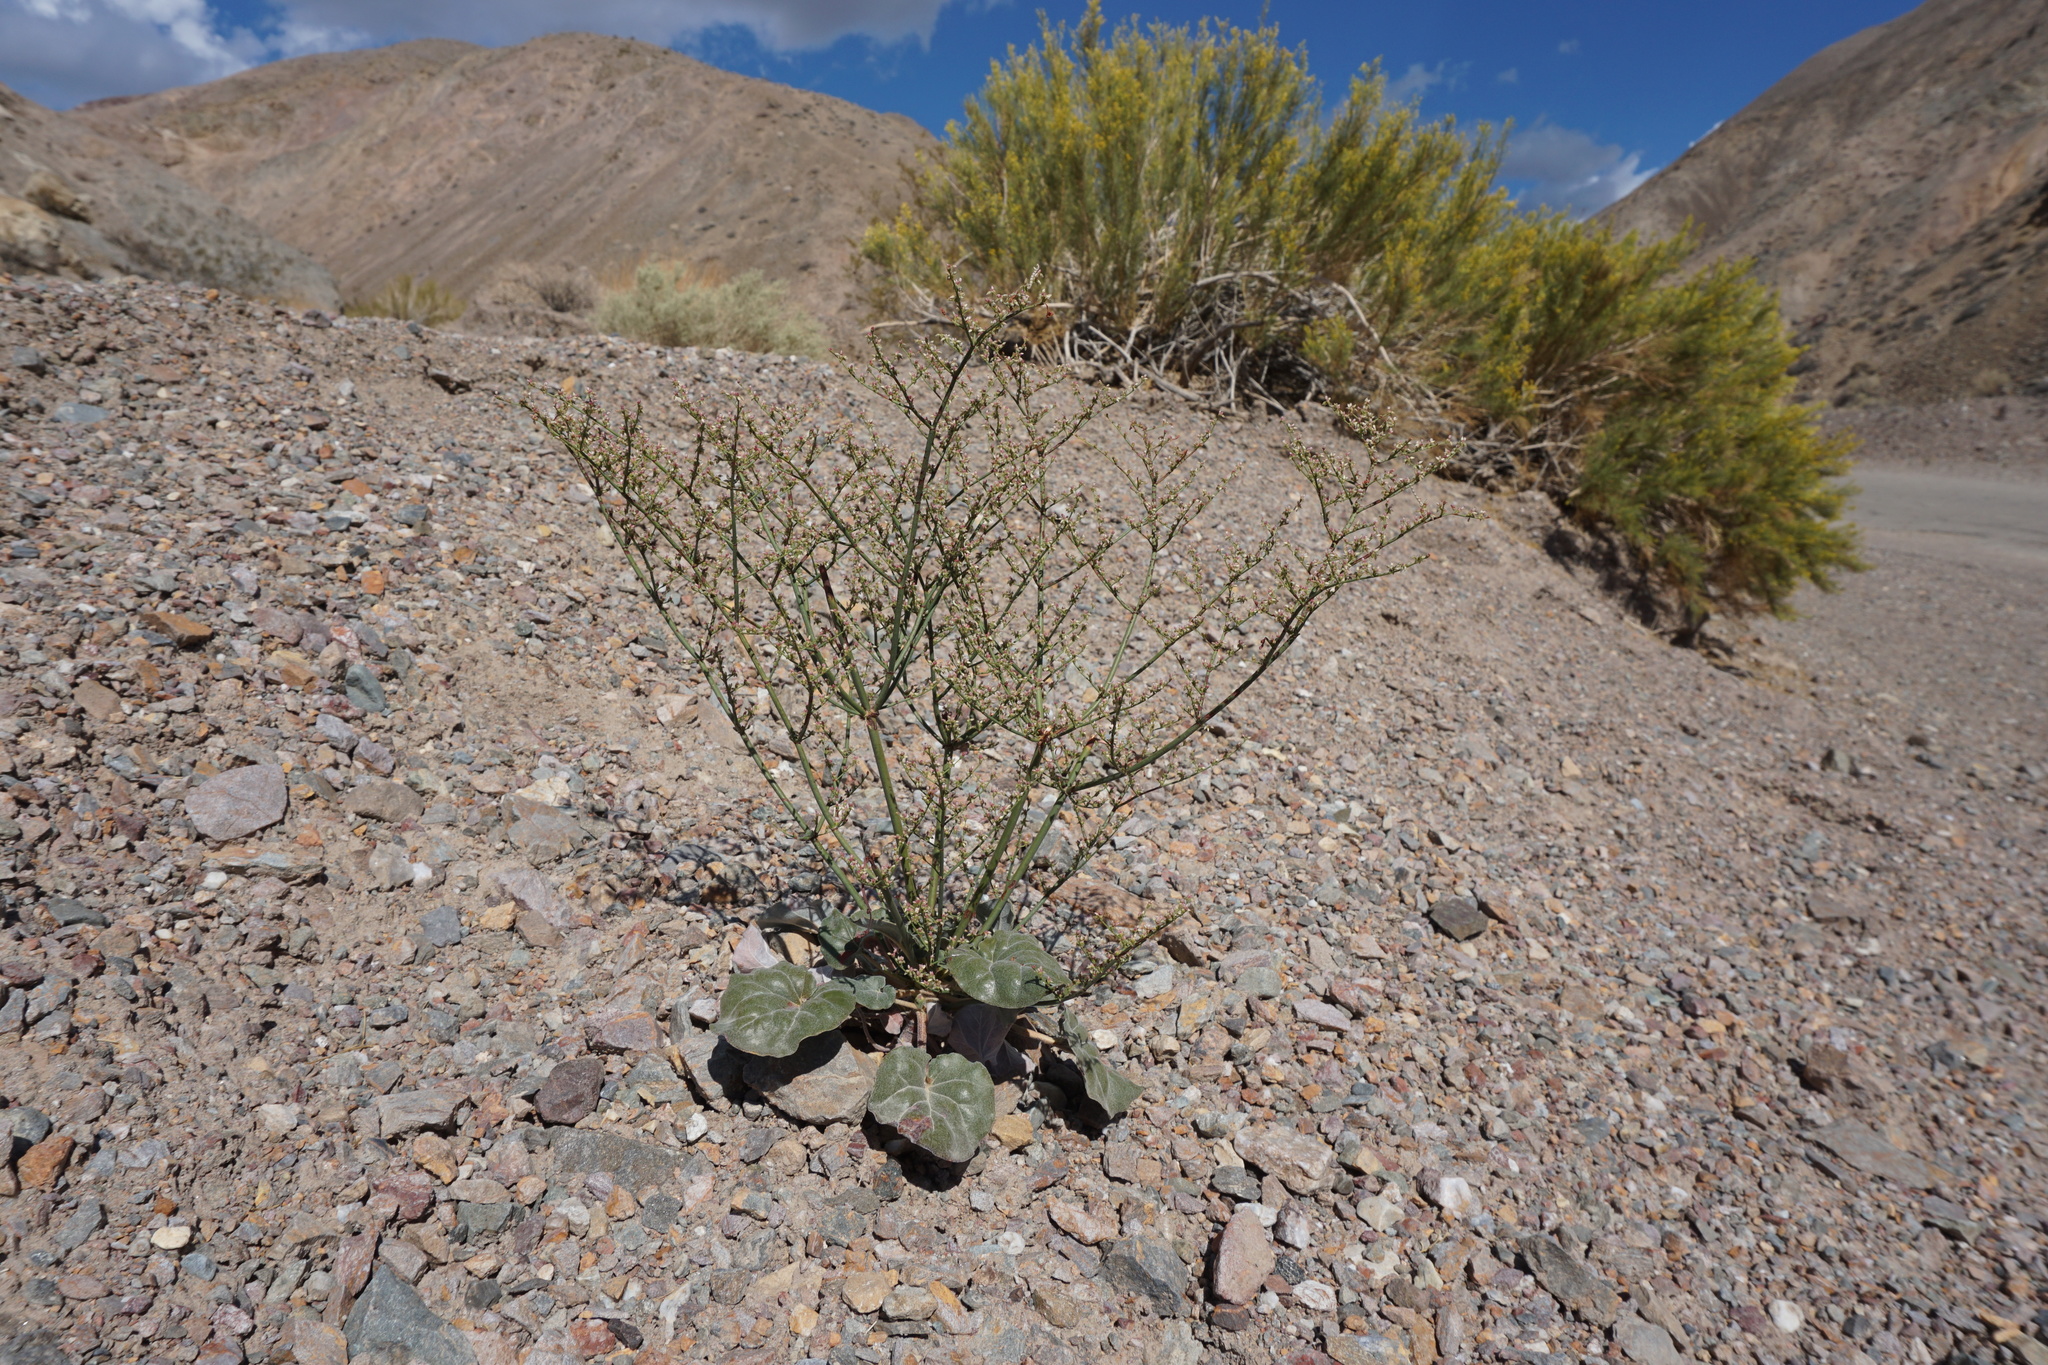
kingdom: Plantae
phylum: Tracheophyta
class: Magnoliopsida
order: Caryophyllales
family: Polygonaceae
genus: Eriogonum
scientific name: Eriogonum hoffmannii
